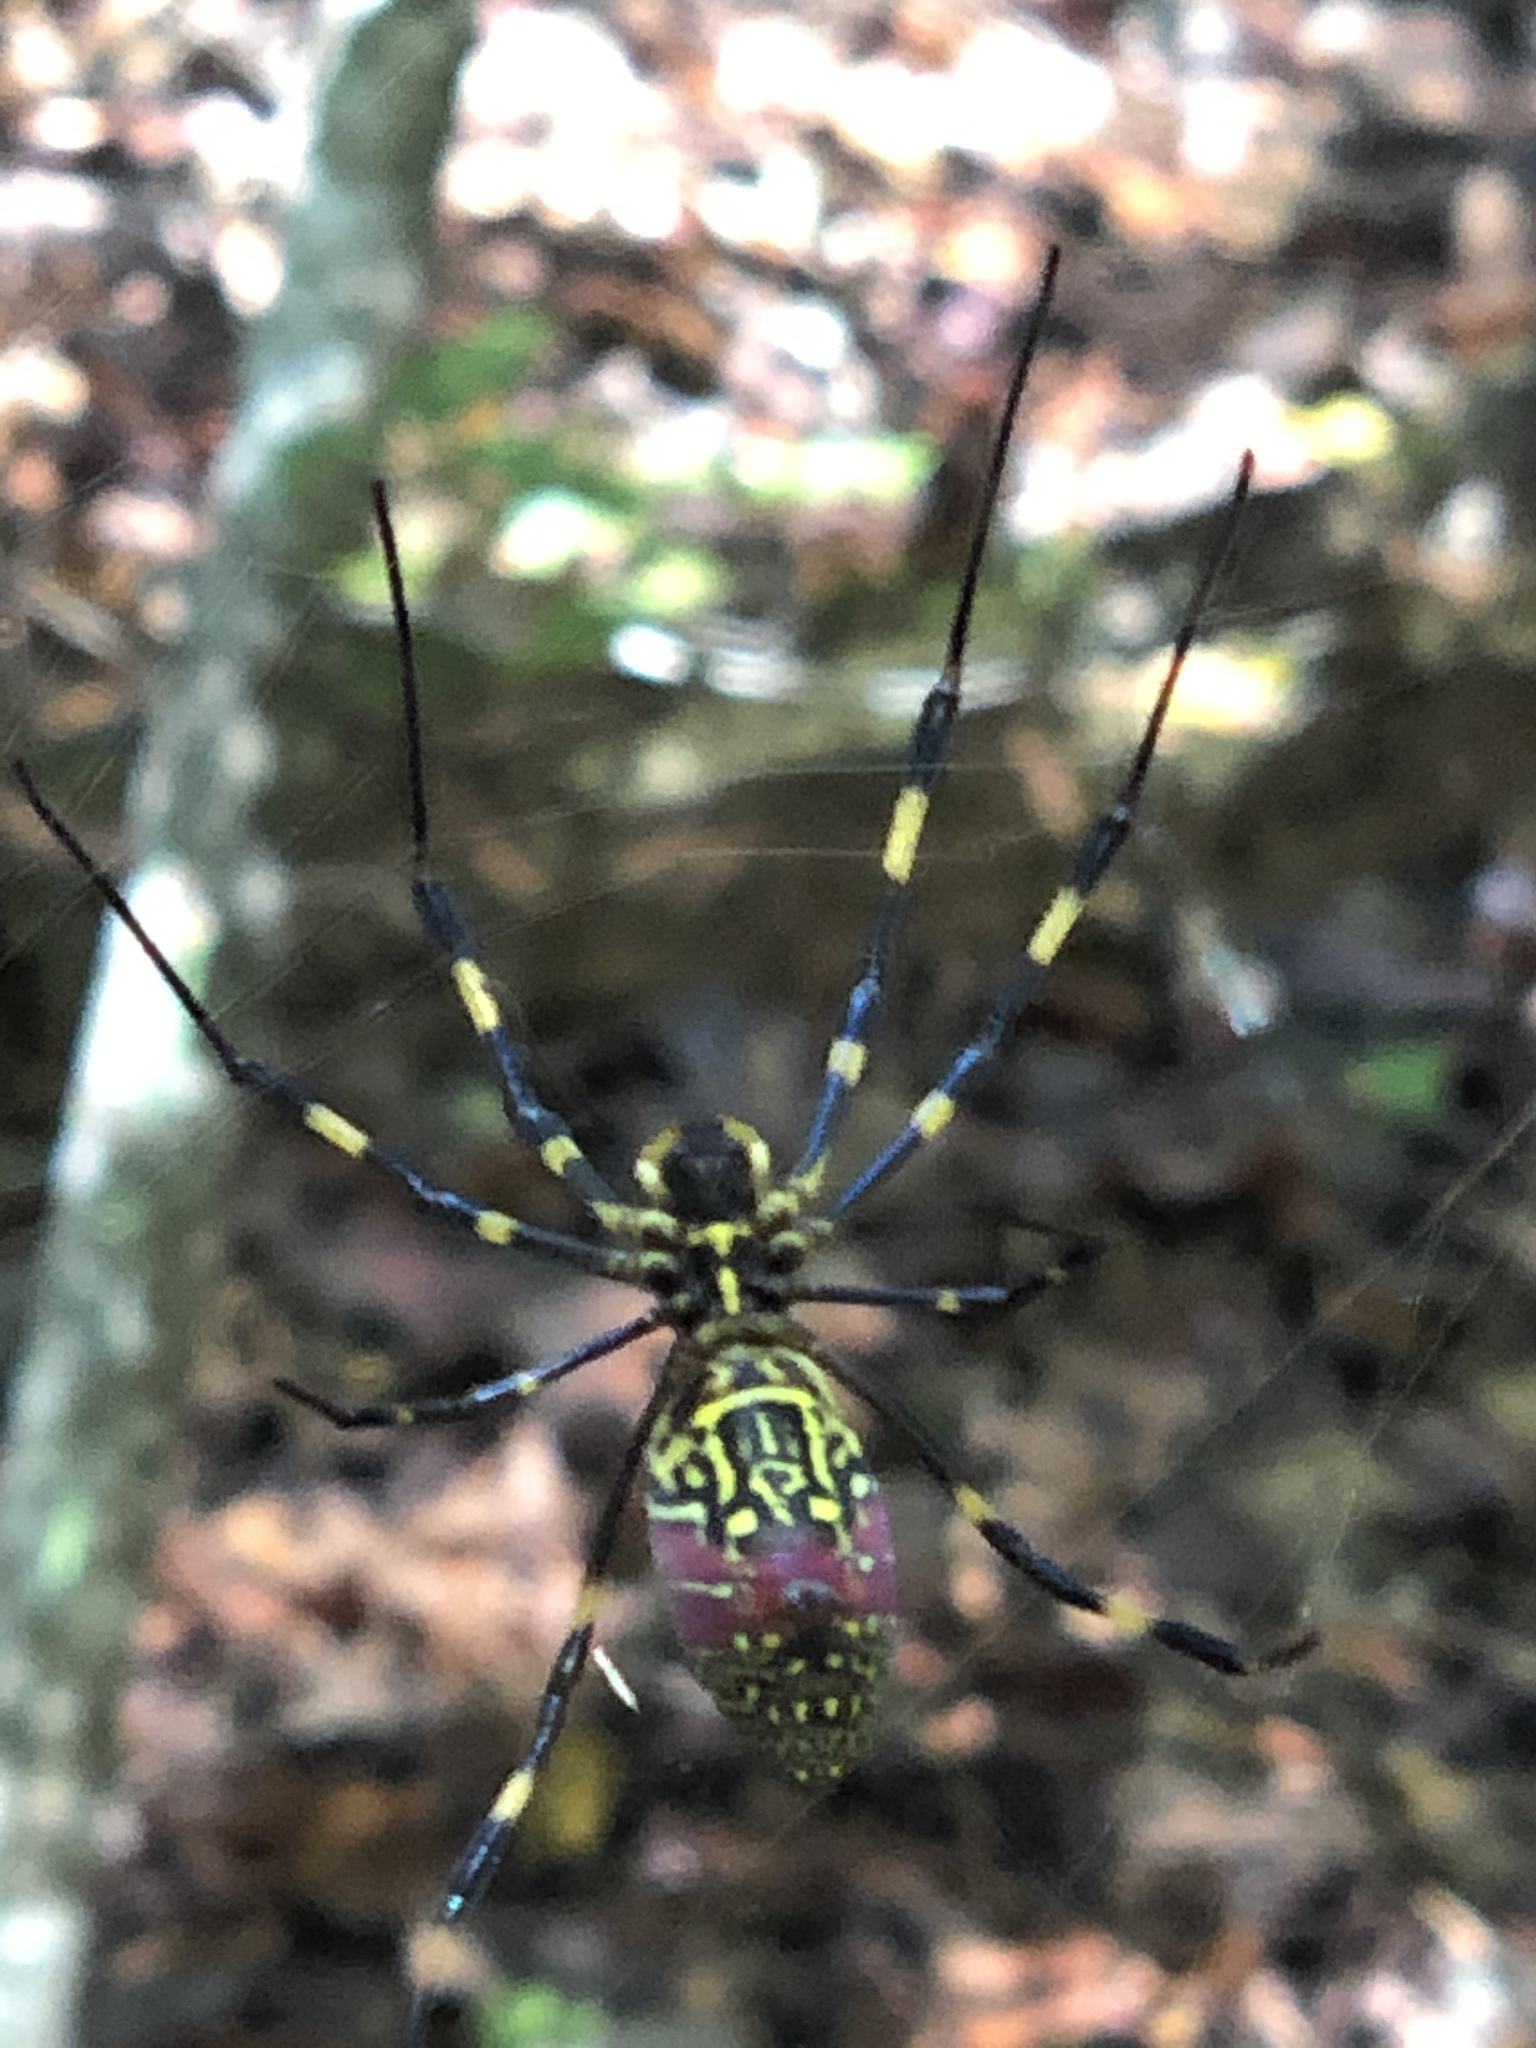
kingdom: Animalia
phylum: Arthropoda
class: Arachnida
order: Araneae
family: Araneidae
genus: Trichonephila
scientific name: Trichonephila clavata
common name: Jorō spider
